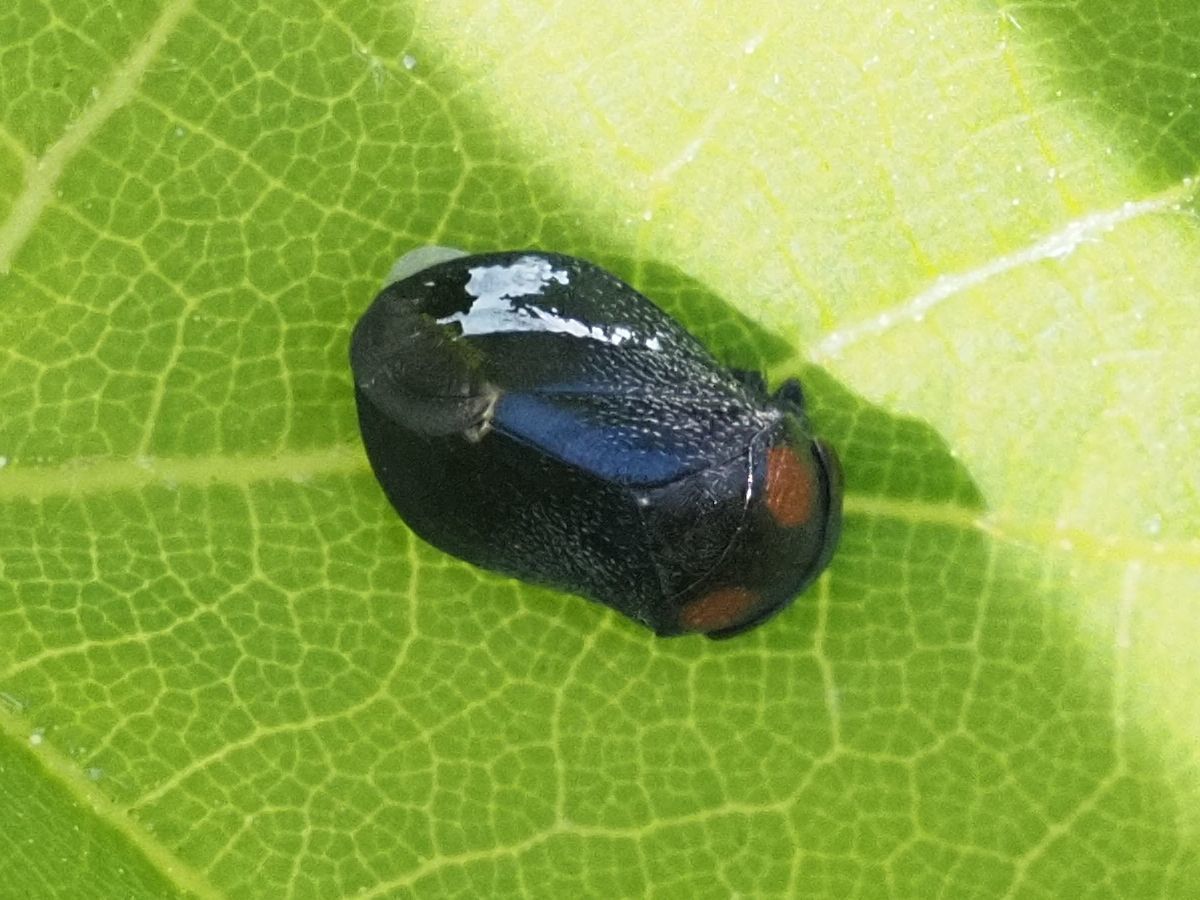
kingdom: Animalia
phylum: Arthropoda
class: Insecta
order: Hemiptera
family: Cicadellidae
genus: Penthimia
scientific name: Penthimia nigra
